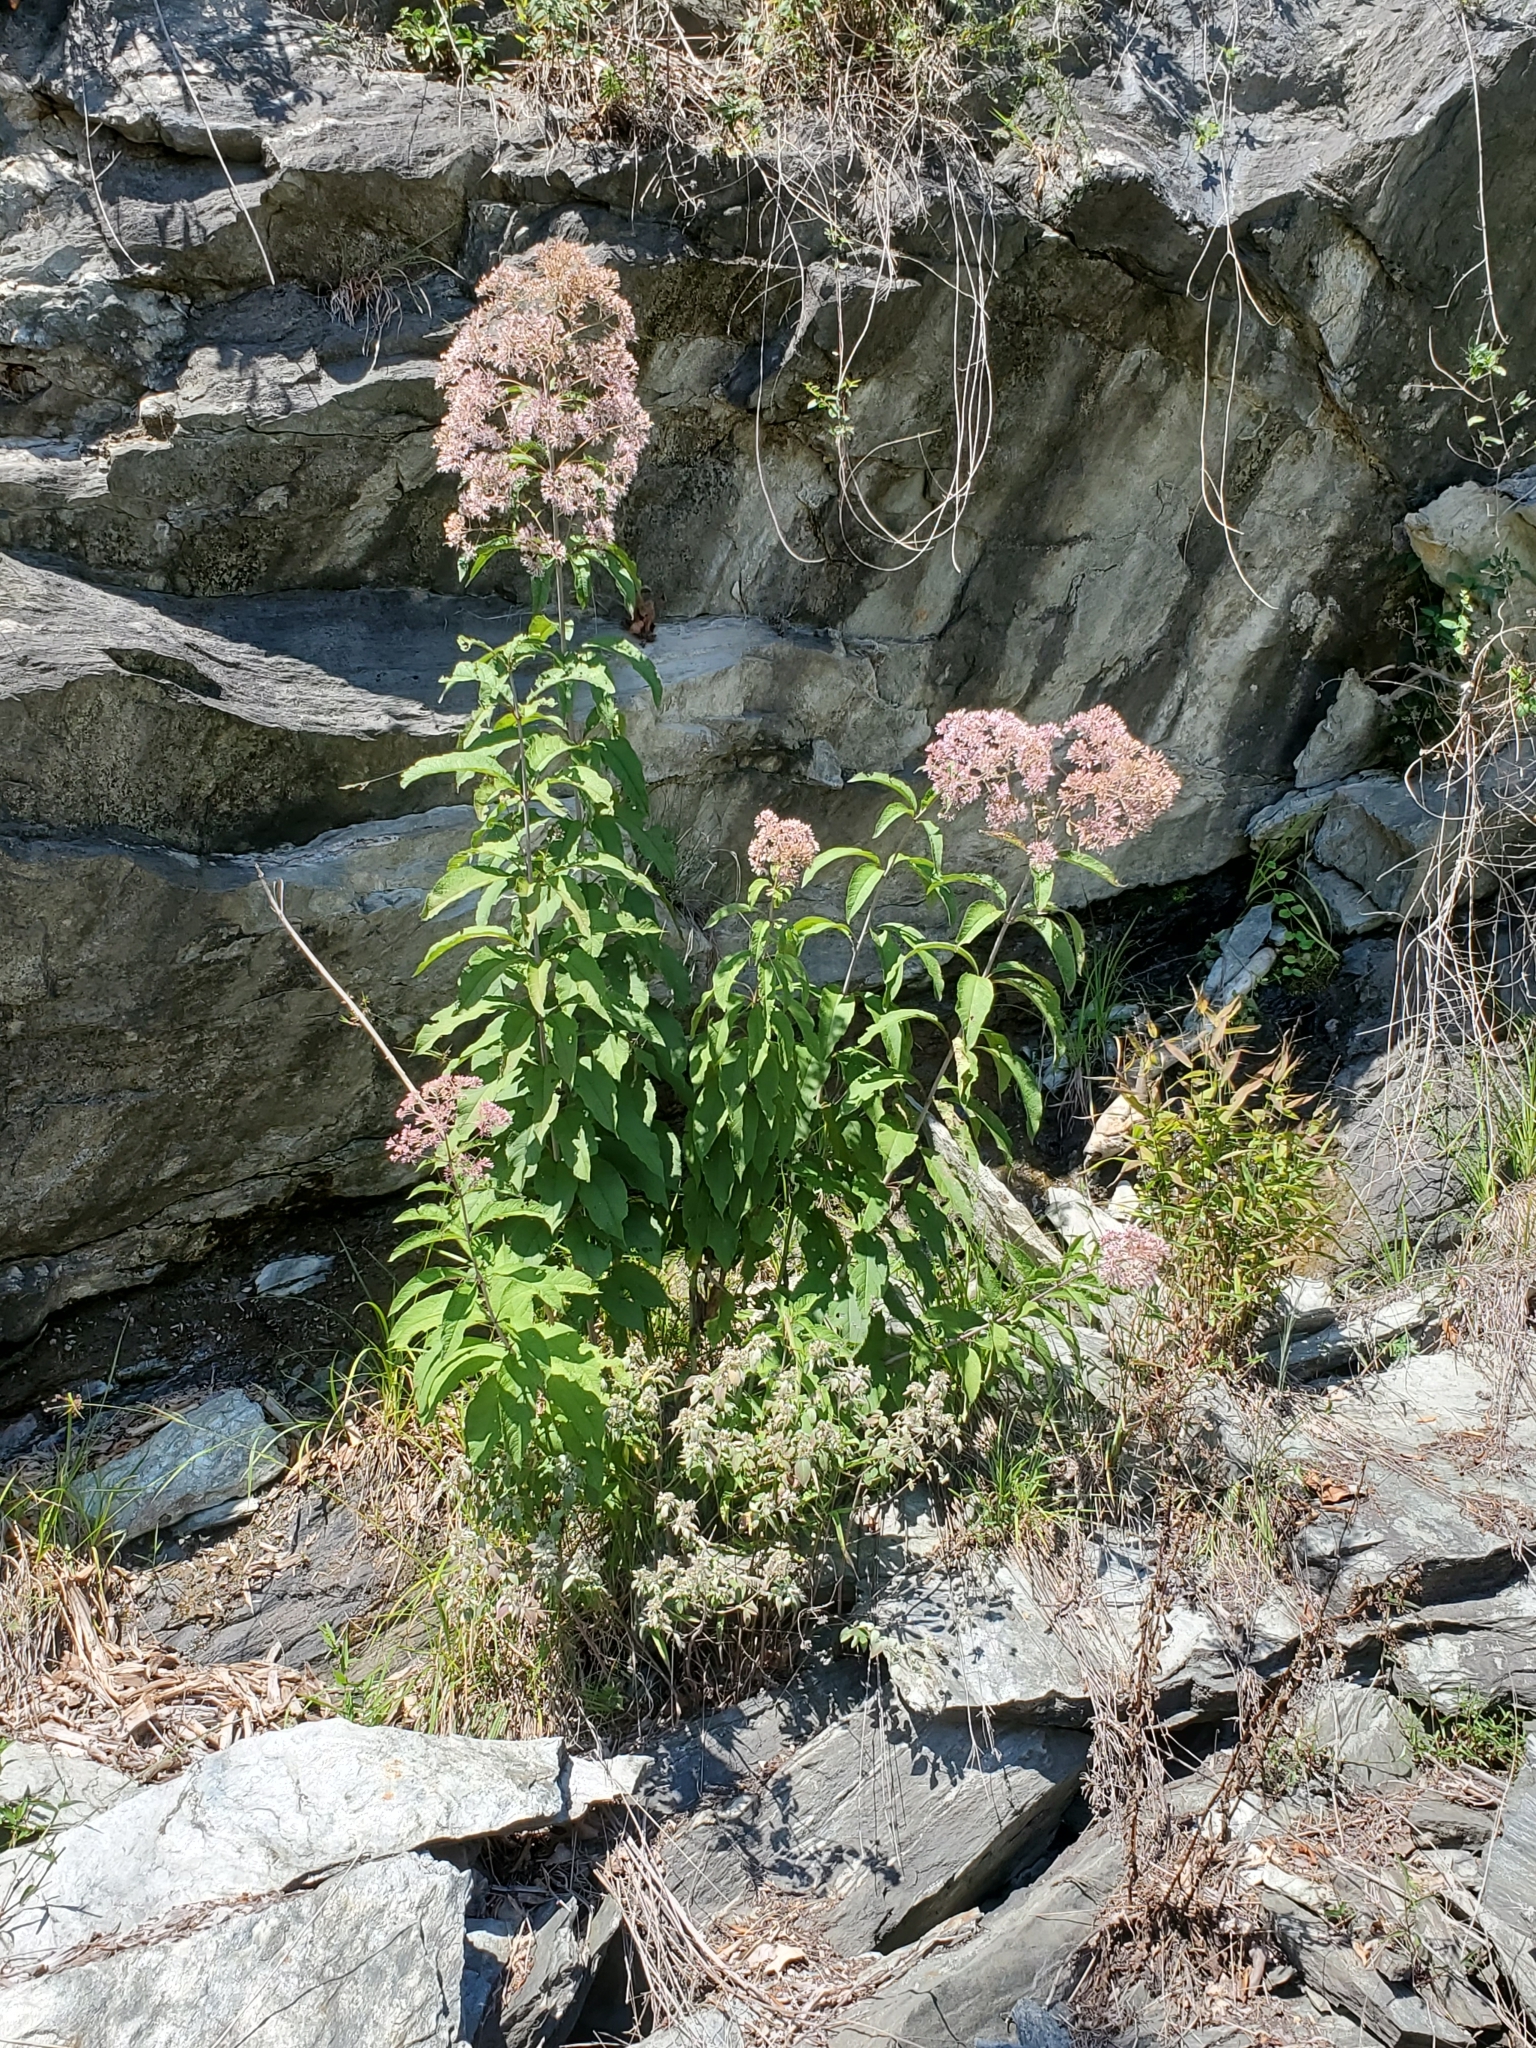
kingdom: Plantae
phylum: Tracheophyta
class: Magnoliopsida
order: Asterales
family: Asteraceae
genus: Eutrochium
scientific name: Eutrochium fistulosum
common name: Trumpetweed
